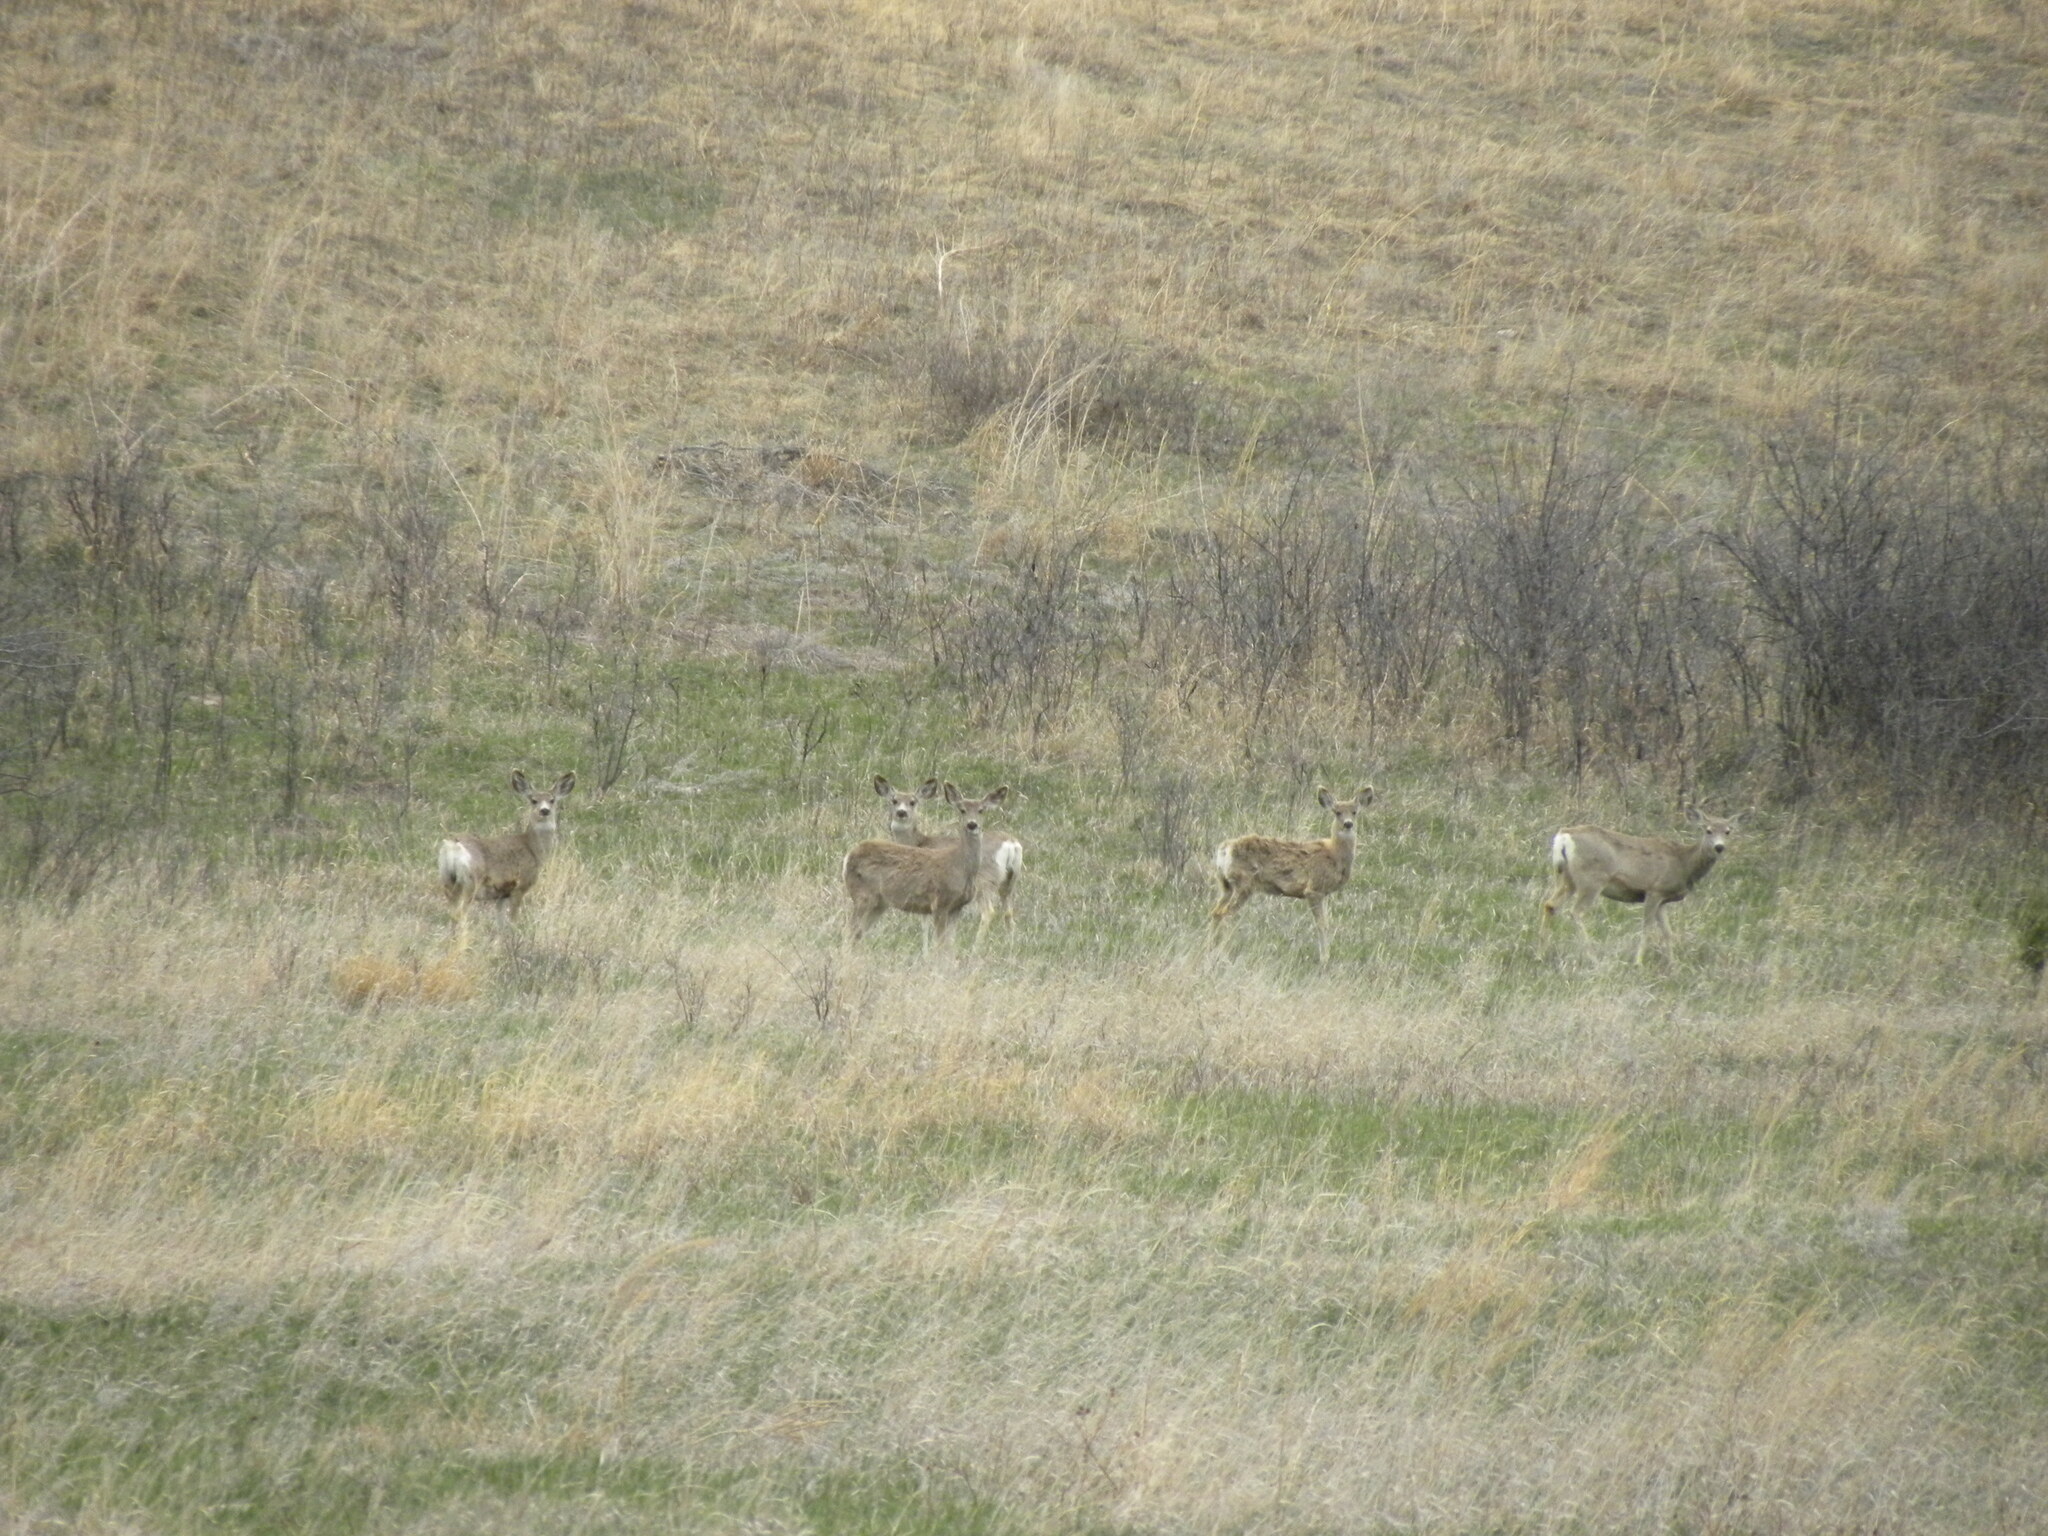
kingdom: Animalia
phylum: Chordata
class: Mammalia
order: Artiodactyla
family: Cervidae
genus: Odocoileus
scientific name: Odocoileus hemionus
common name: Mule deer
